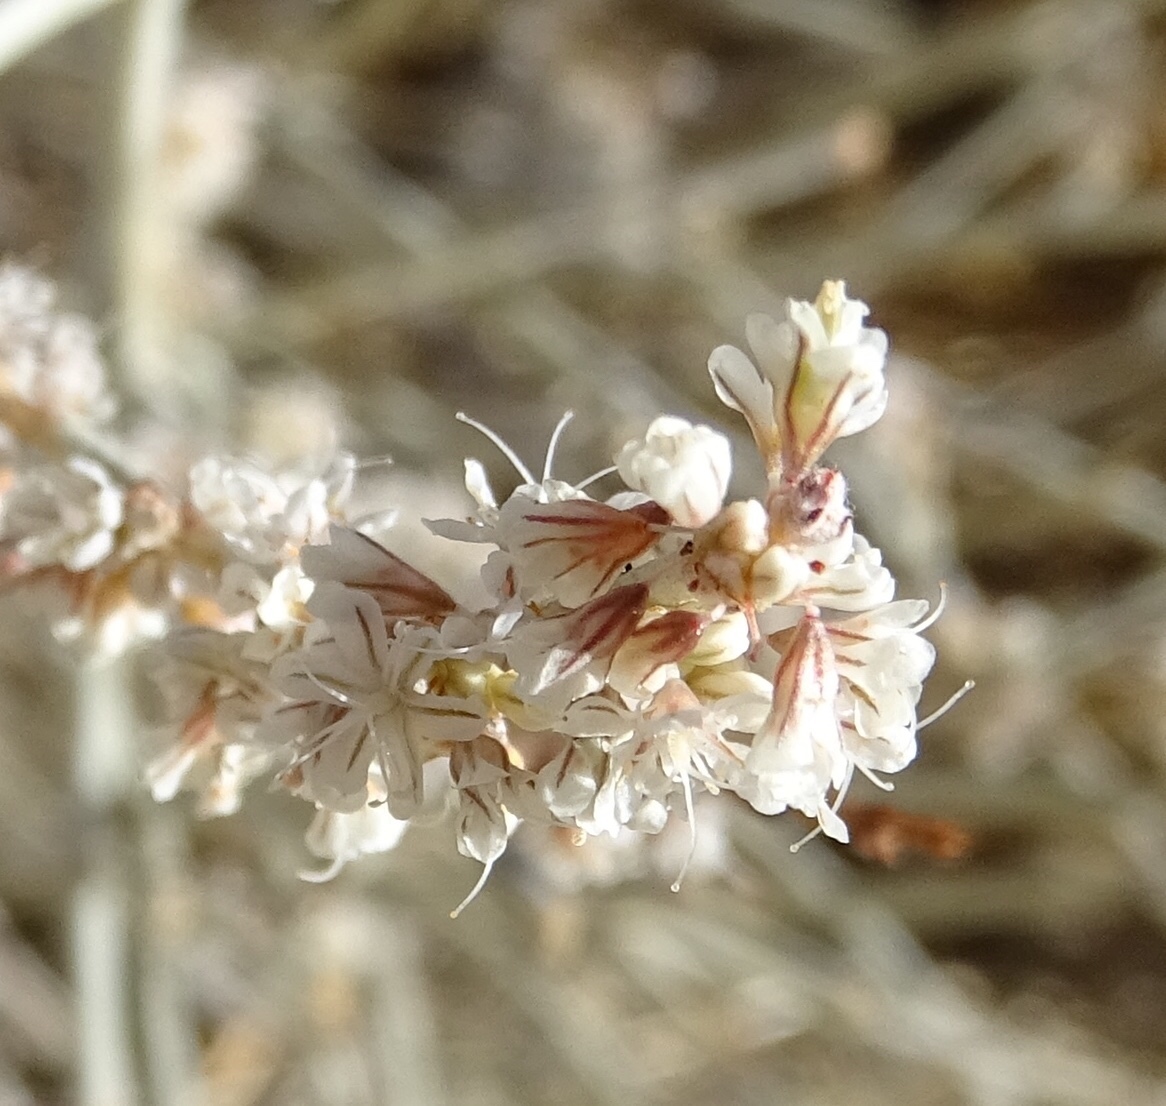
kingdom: Plantae
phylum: Tracheophyta
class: Magnoliopsida
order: Caryophyllales
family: Polygonaceae
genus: Eriogonum
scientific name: Eriogonum wrightii
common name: Bastard-sage
